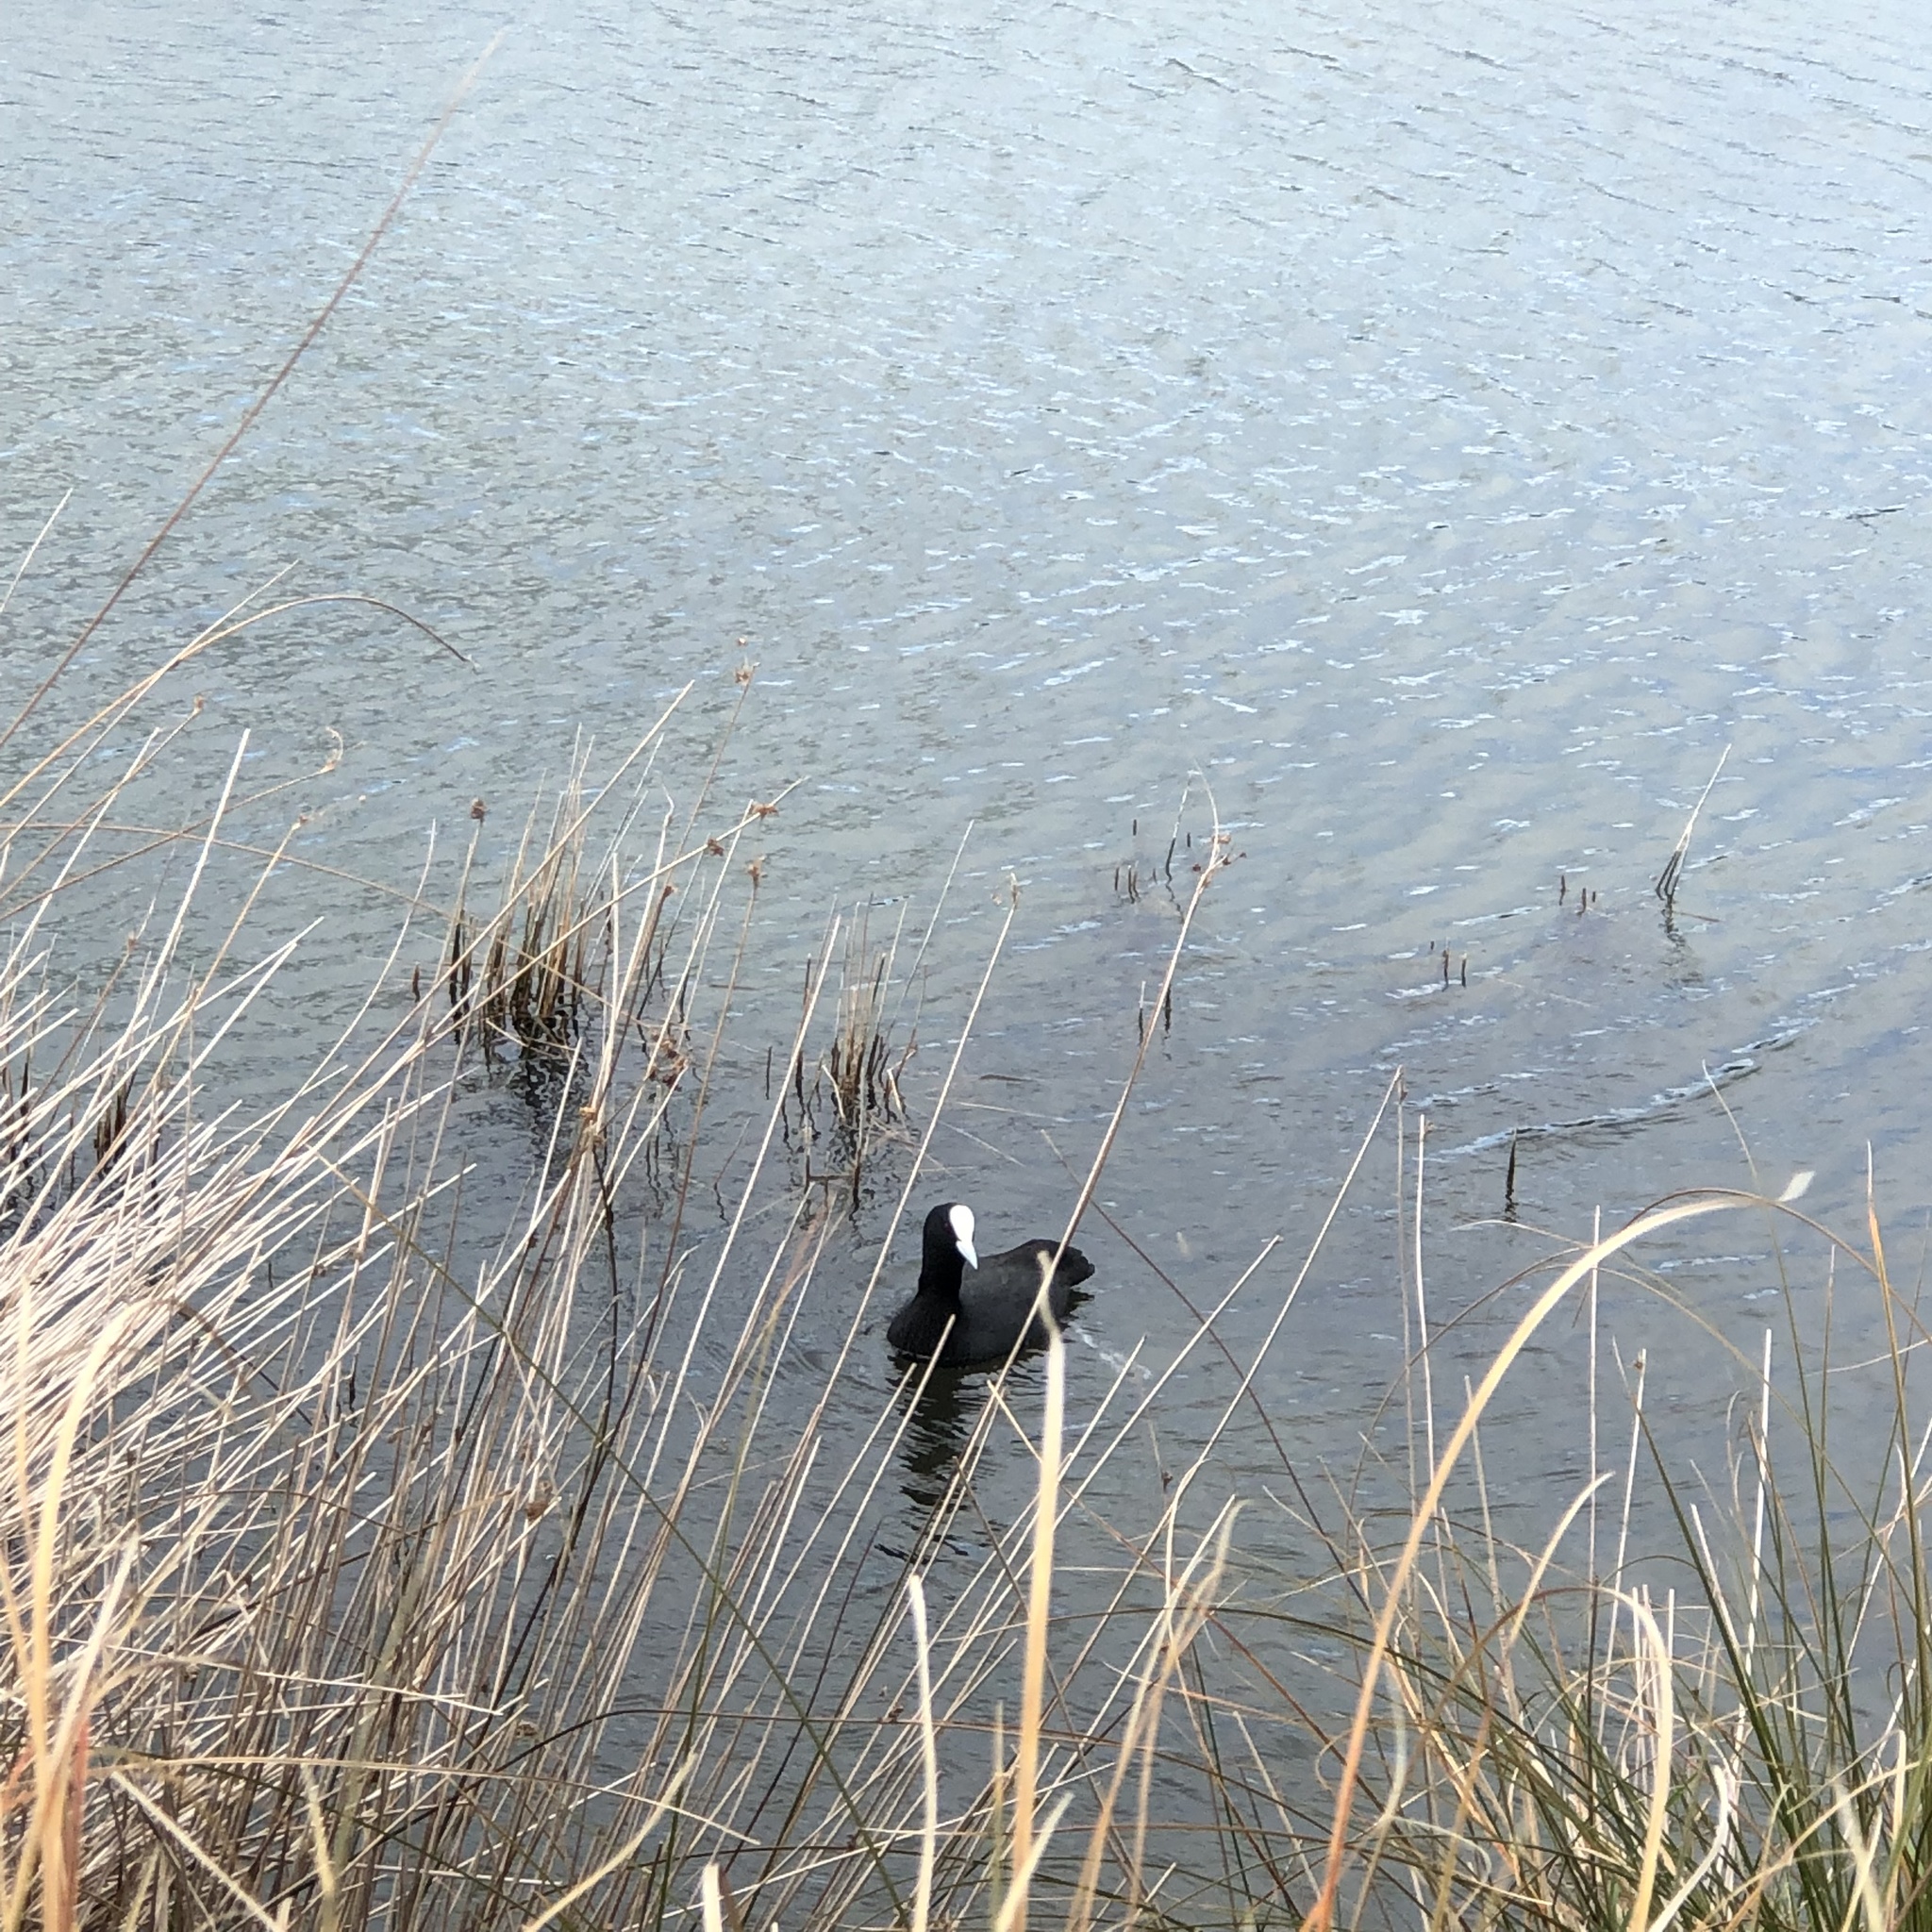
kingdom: Animalia
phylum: Chordata
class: Aves
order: Gruiformes
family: Rallidae
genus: Fulica
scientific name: Fulica atra
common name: Eurasian coot
